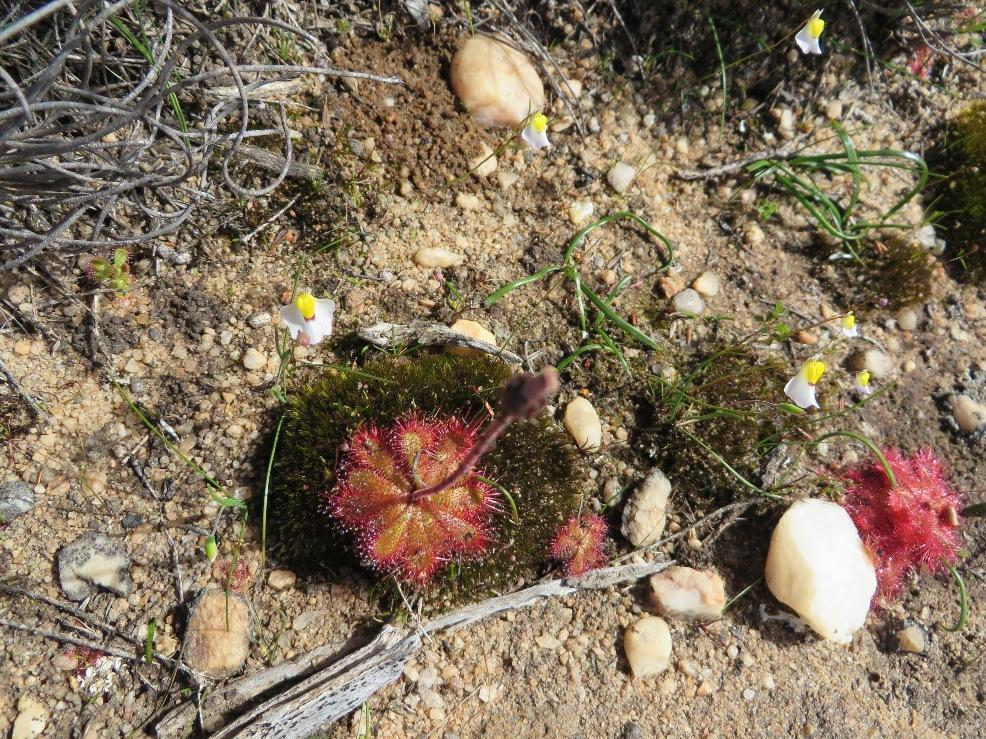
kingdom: Plantae
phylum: Tracheophyta
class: Magnoliopsida
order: Caryophyllales
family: Droseraceae
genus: Drosera
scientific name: Drosera trinervia
